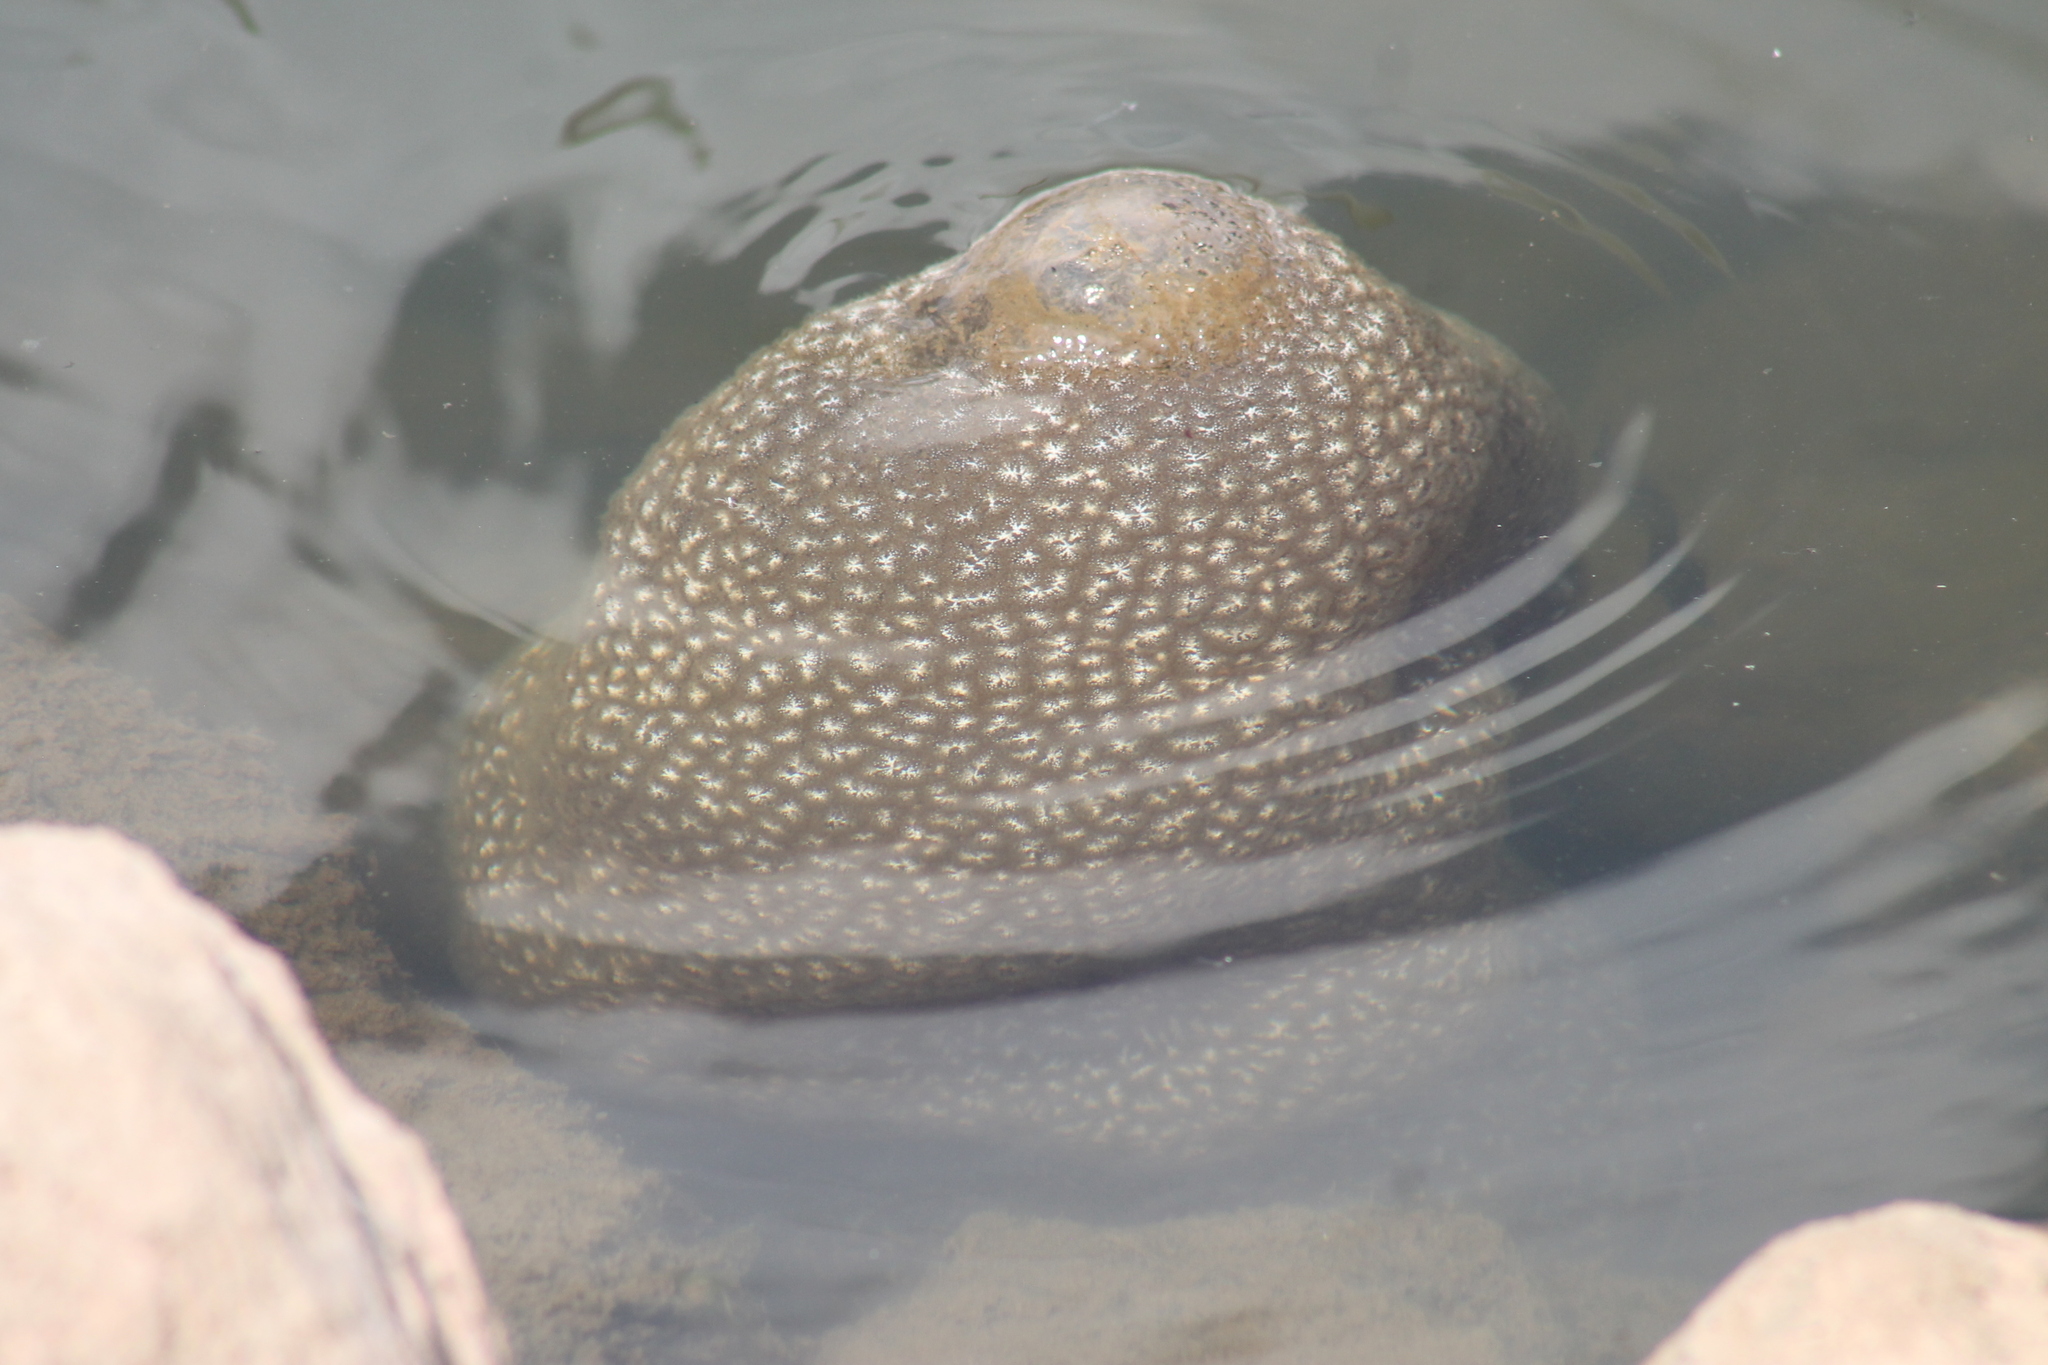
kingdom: Animalia
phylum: Bryozoa
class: Phylactolaemata
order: Plumatellida
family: Pectinatellidae
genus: Pectinatella
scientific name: Pectinatella magnifica
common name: Magnificent bryozoan
